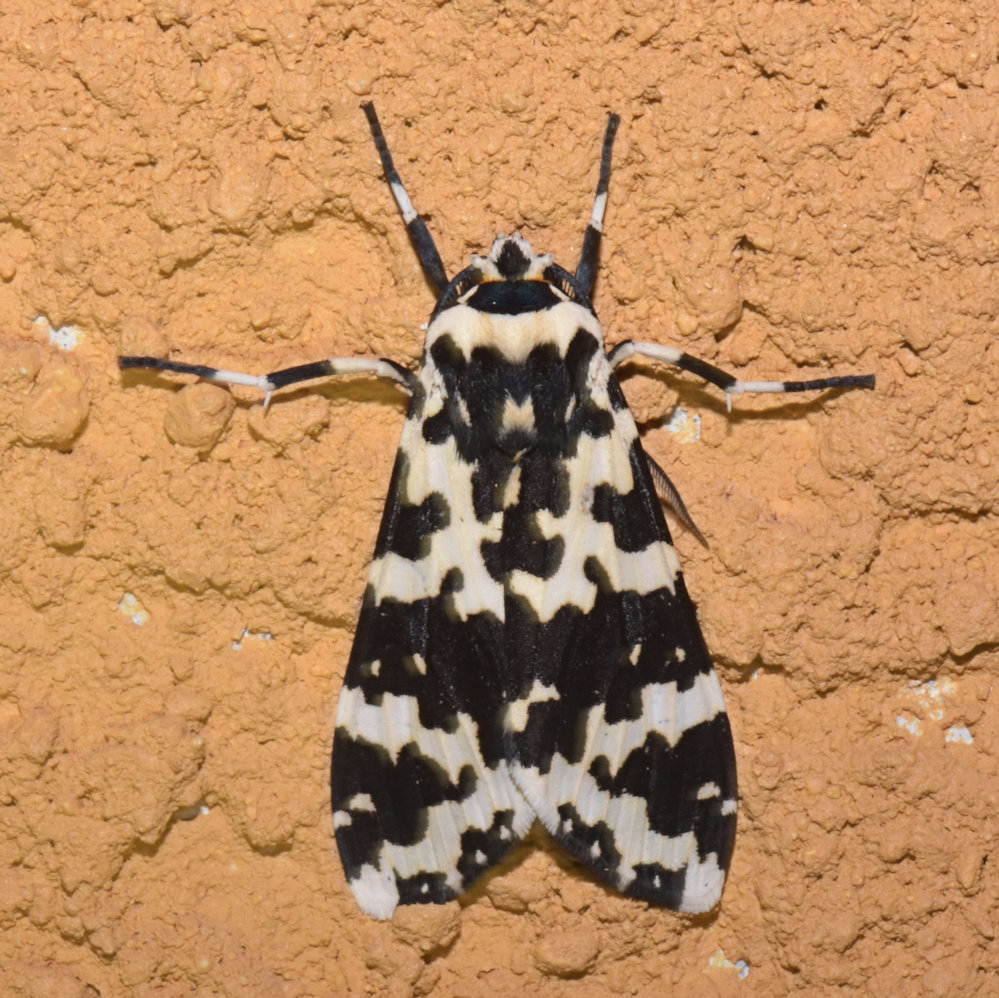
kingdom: Animalia
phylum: Arthropoda
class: Insecta
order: Lepidoptera
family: Erebidae
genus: Eucereon
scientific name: Eucereon coenobita
